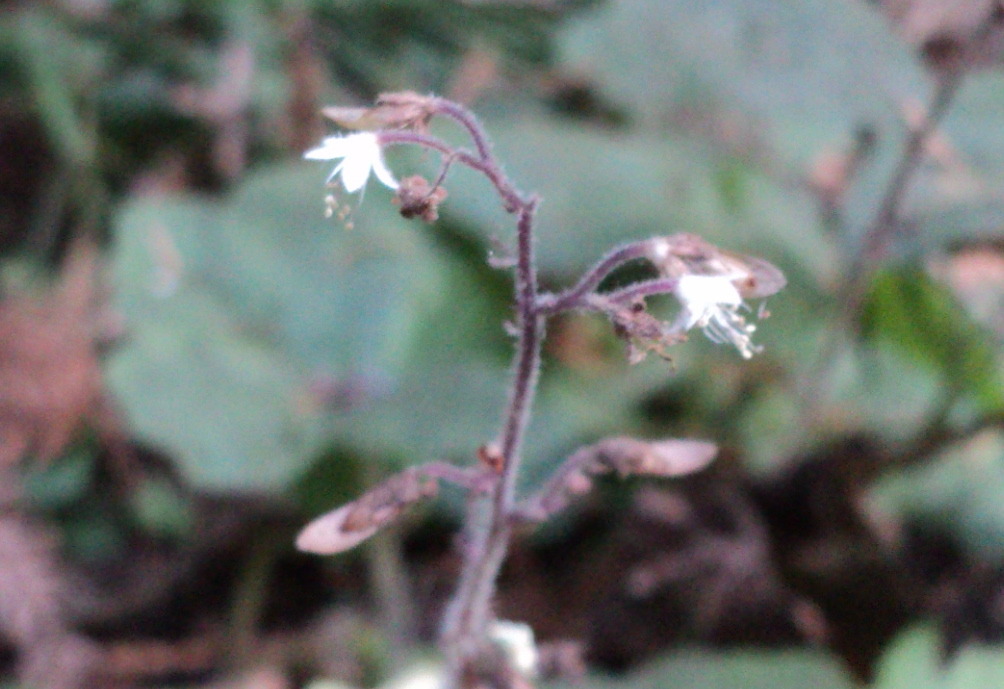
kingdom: Plantae
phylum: Tracheophyta
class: Magnoliopsida
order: Saxifragales
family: Saxifragaceae
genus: Tiarella
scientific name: Tiarella trifoliata
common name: Sugar-scoop
